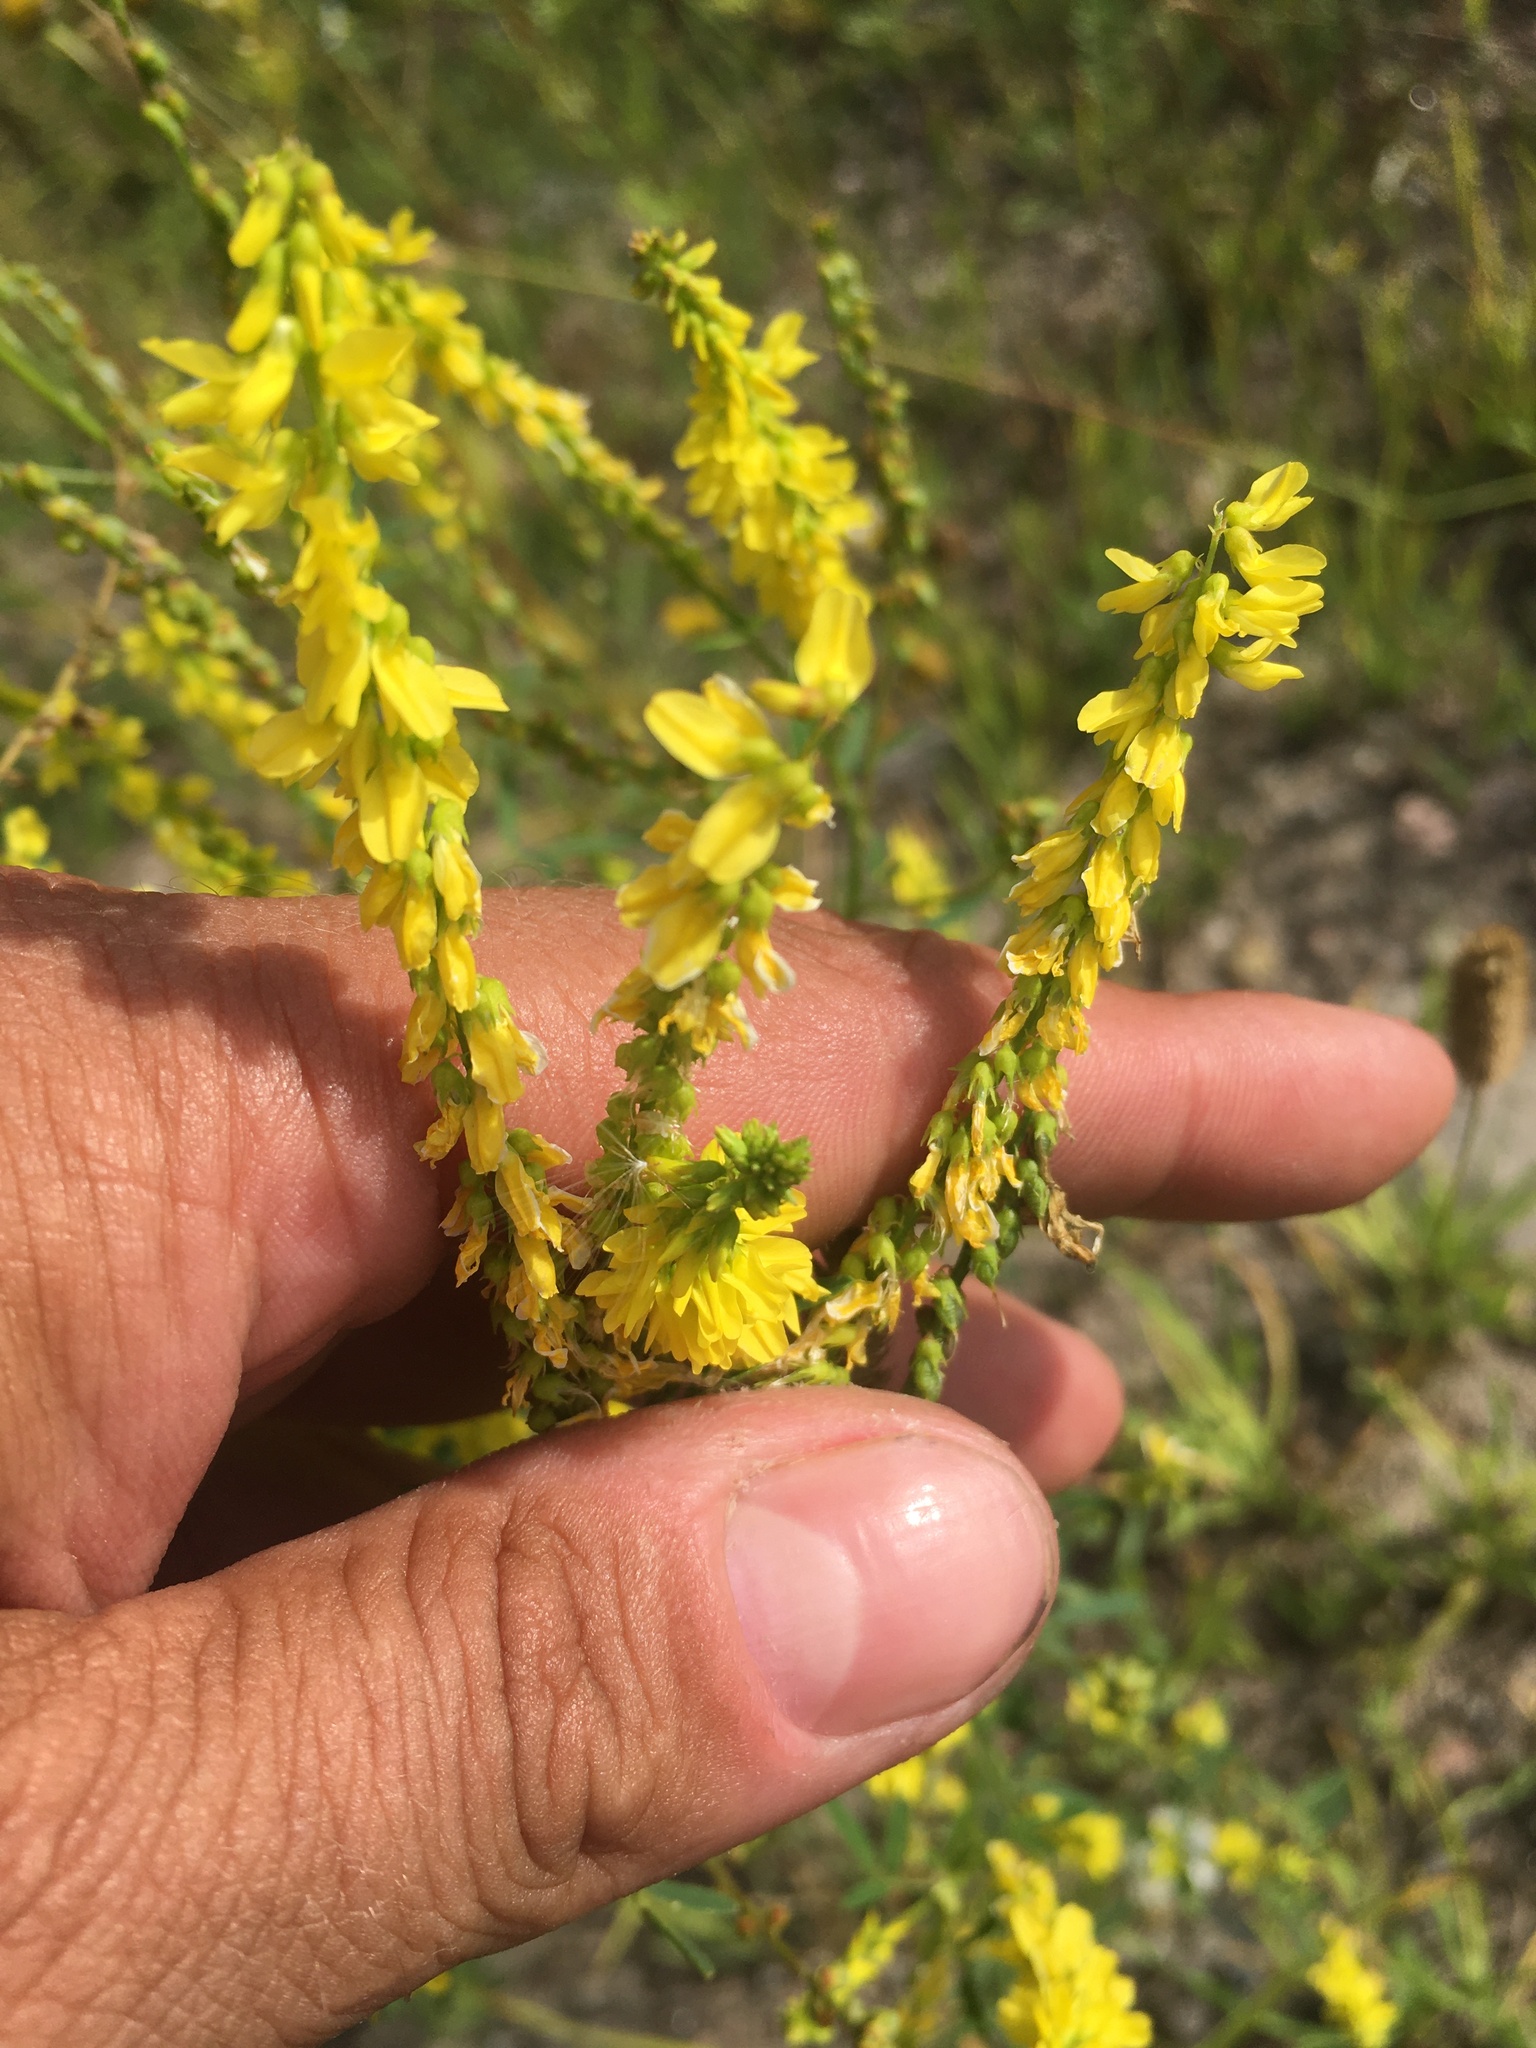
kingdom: Plantae
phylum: Tracheophyta
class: Magnoliopsida
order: Fabales
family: Fabaceae
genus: Melilotus
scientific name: Melilotus officinalis
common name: Sweetclover
